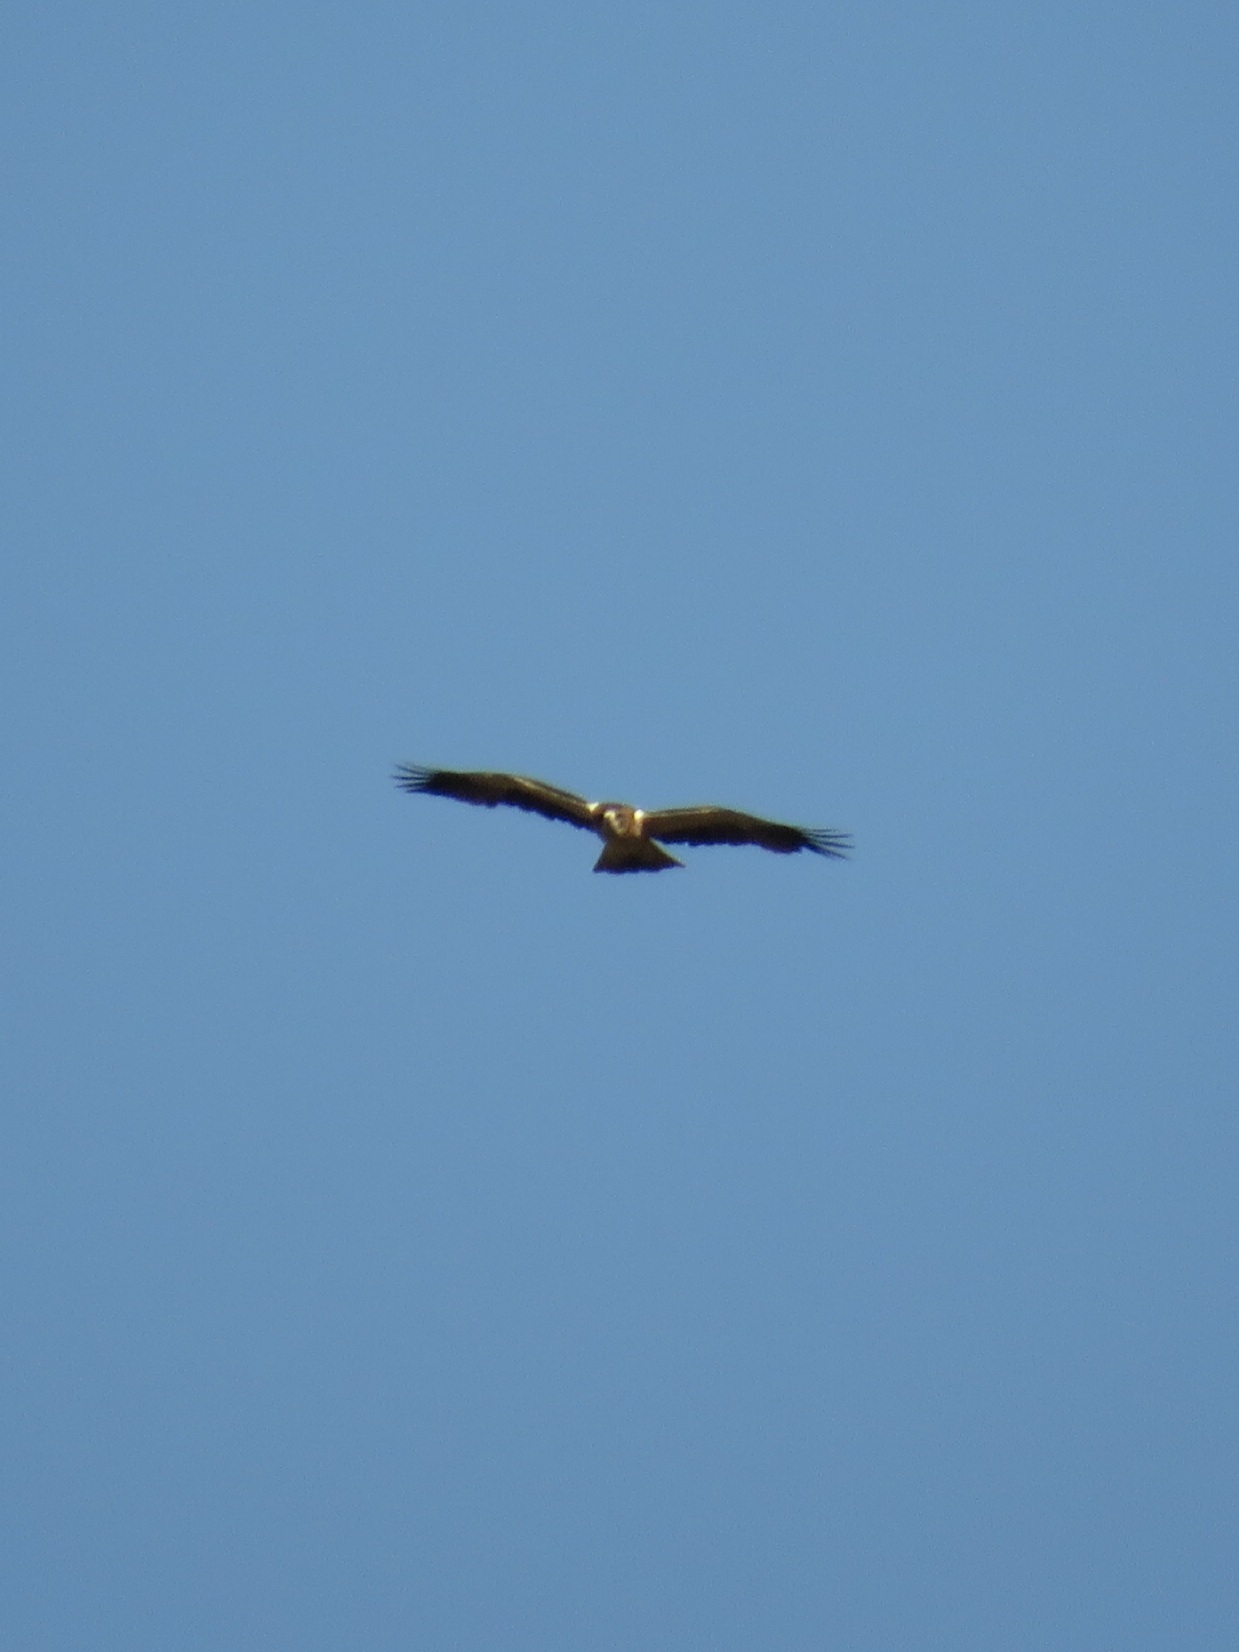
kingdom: Animalia
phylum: Chordata
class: Aves
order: Accipitriformes
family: Accipitridae
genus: Hieraaetus
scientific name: Hieraaetus pennatus
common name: Booted eagle
